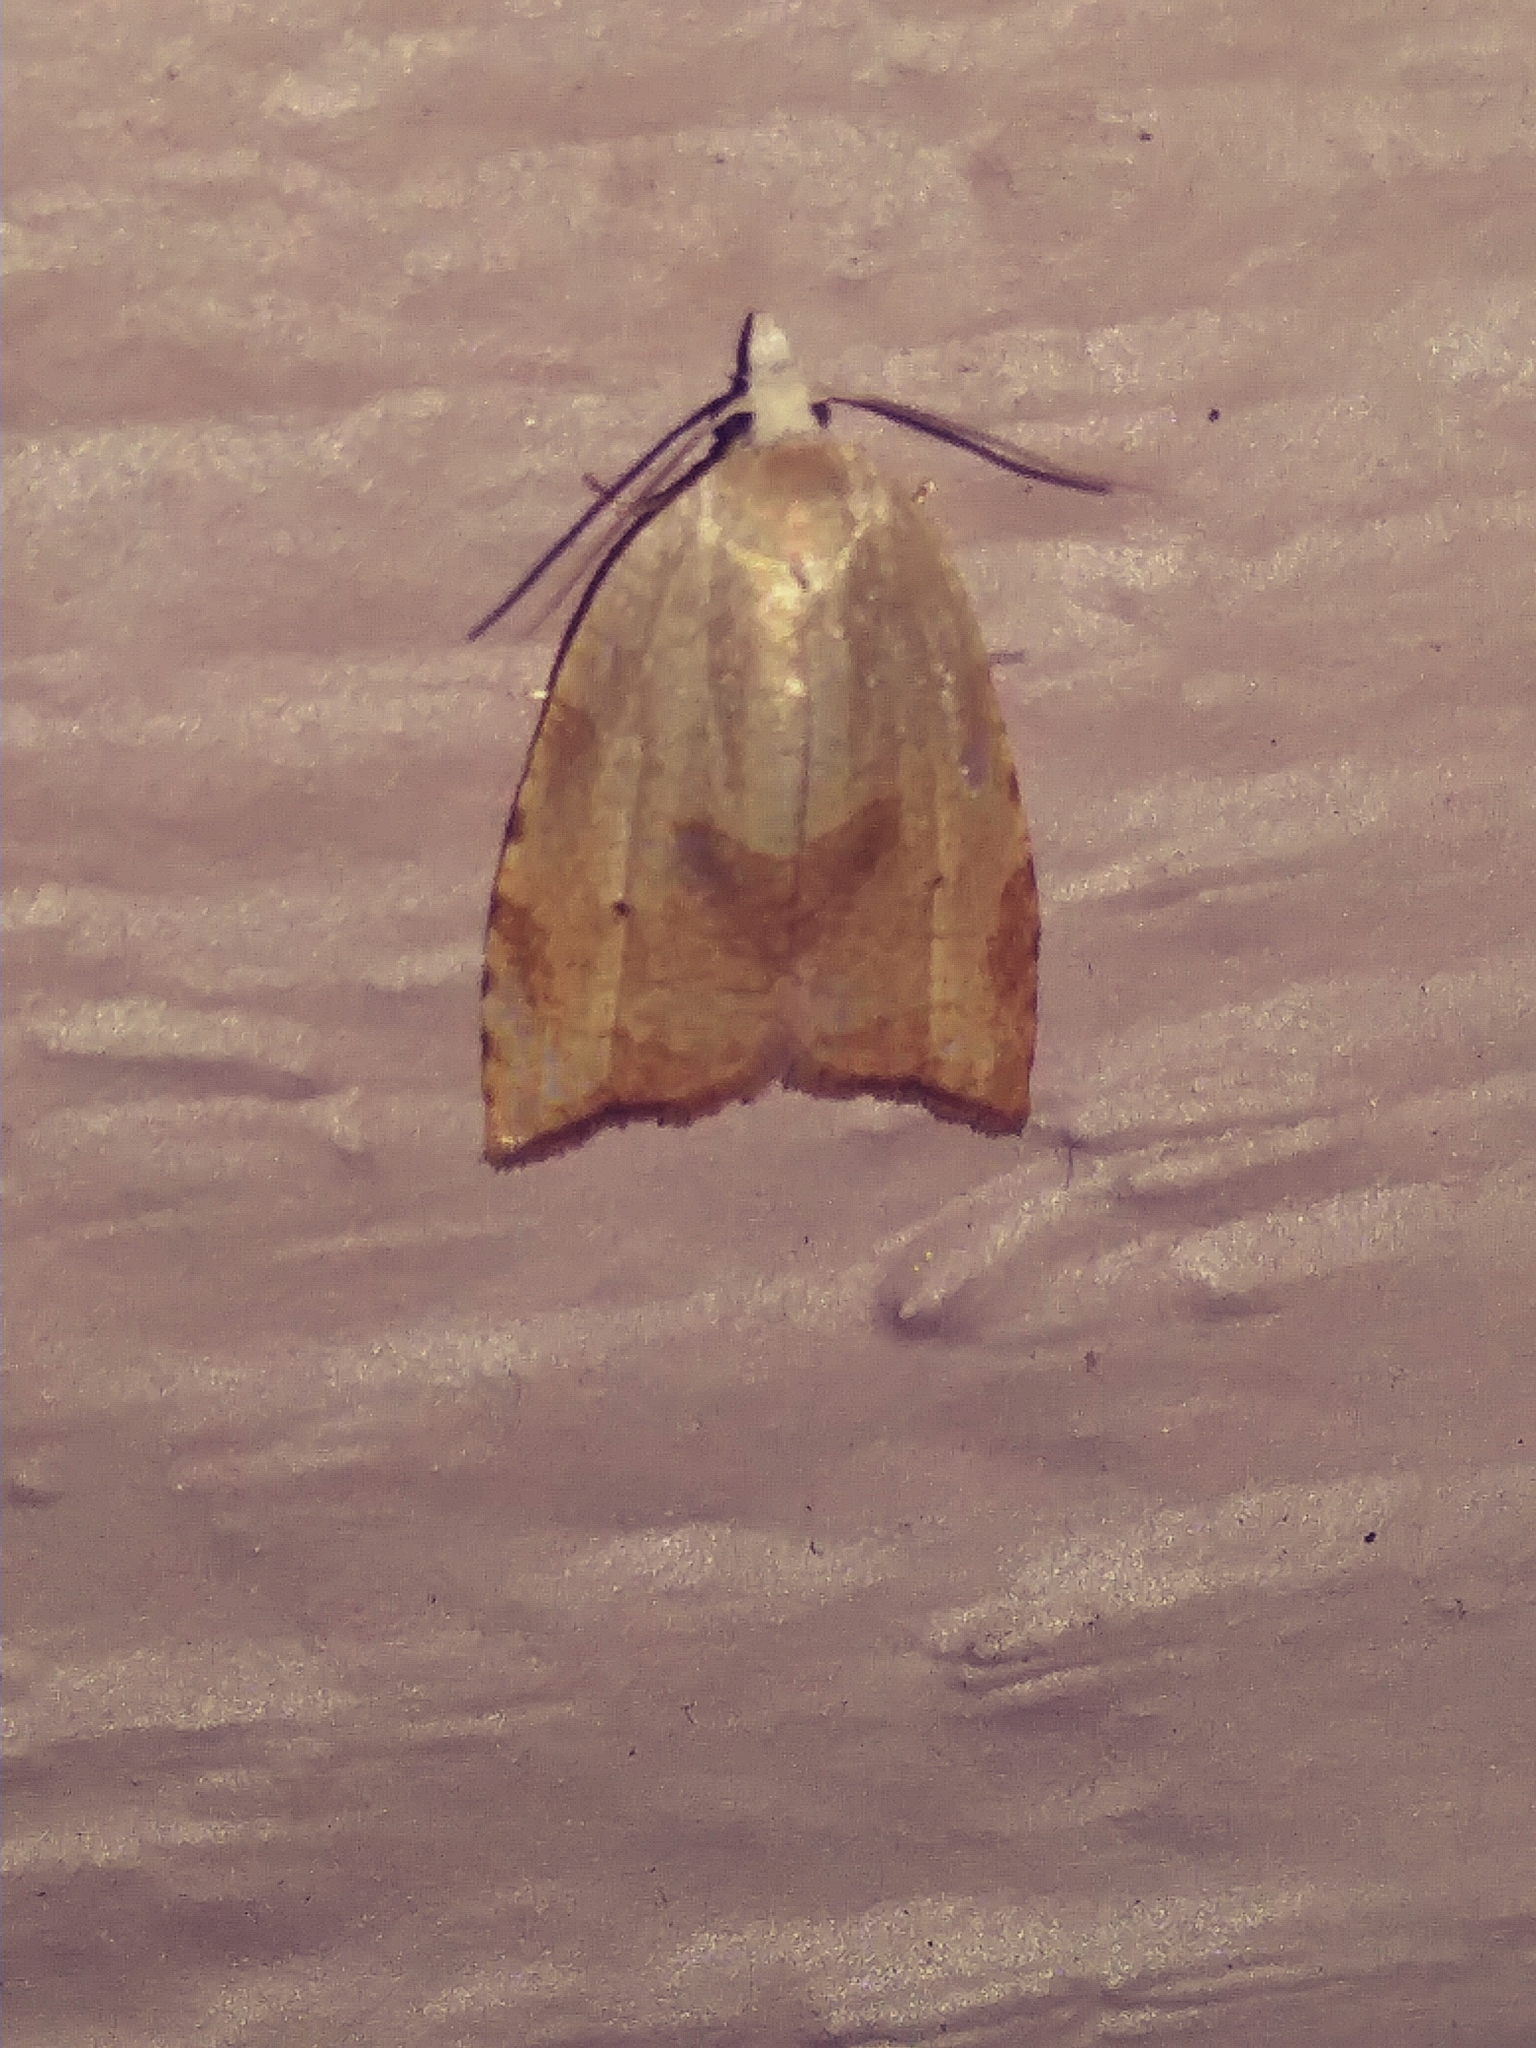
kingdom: Animalia
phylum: Arthropoda
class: Insecta
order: Lepidoptera
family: Tortricidae
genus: Coelostathma
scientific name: Coelostathma discopunctana
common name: Batman moth
